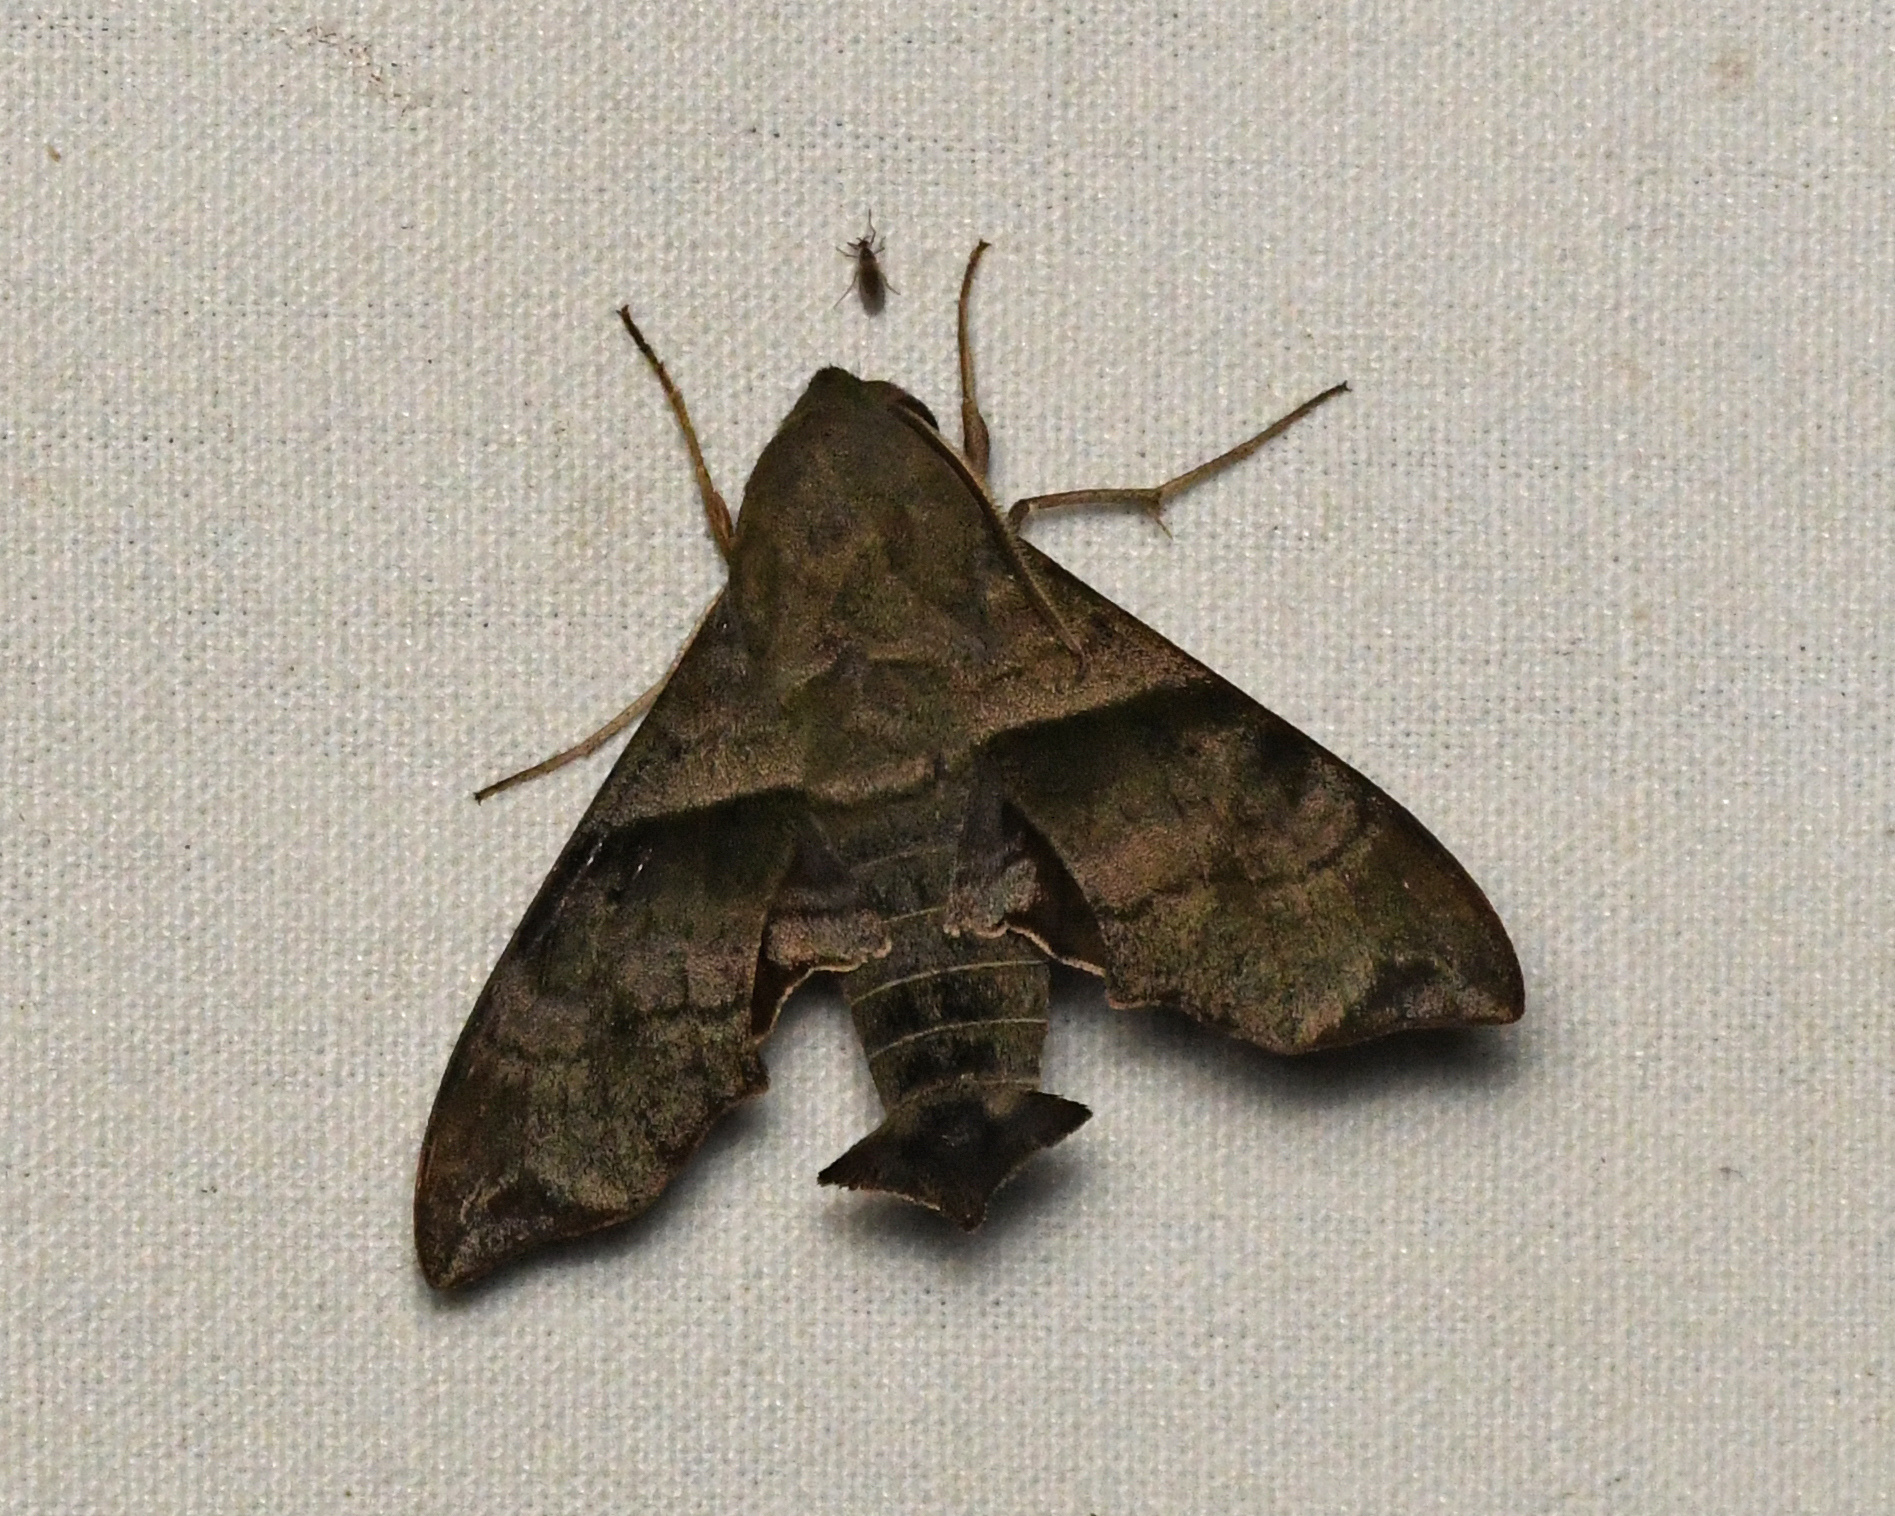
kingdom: Animalia
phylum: Arthropoda
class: Insecta
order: Lepidoptera
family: Sphingidae
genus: Perigonia
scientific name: Perigonia lusca
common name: Half-blind sphinx
